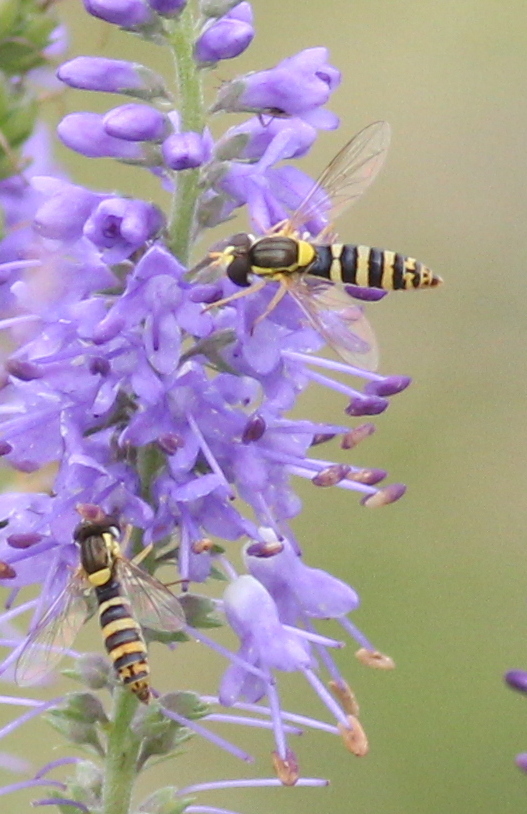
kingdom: Animalia
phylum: Arthropoda
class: Insecta
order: Diptera
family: Syrphidae
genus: Sphaerophoria
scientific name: Sphaerophoria
